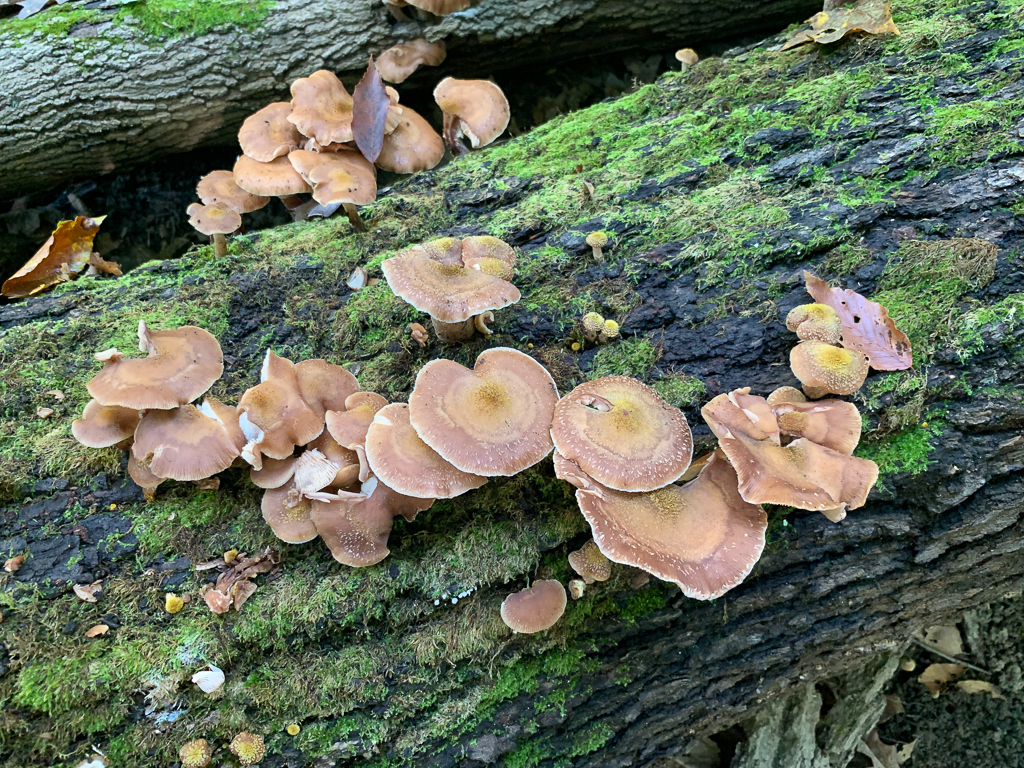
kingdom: Fungi
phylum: Basidiomycota
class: Agaricomycetes
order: Agaricales
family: Physalacriaceae
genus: Armillaria
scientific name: Armillaria gallica
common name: Bulbous honey fungus
